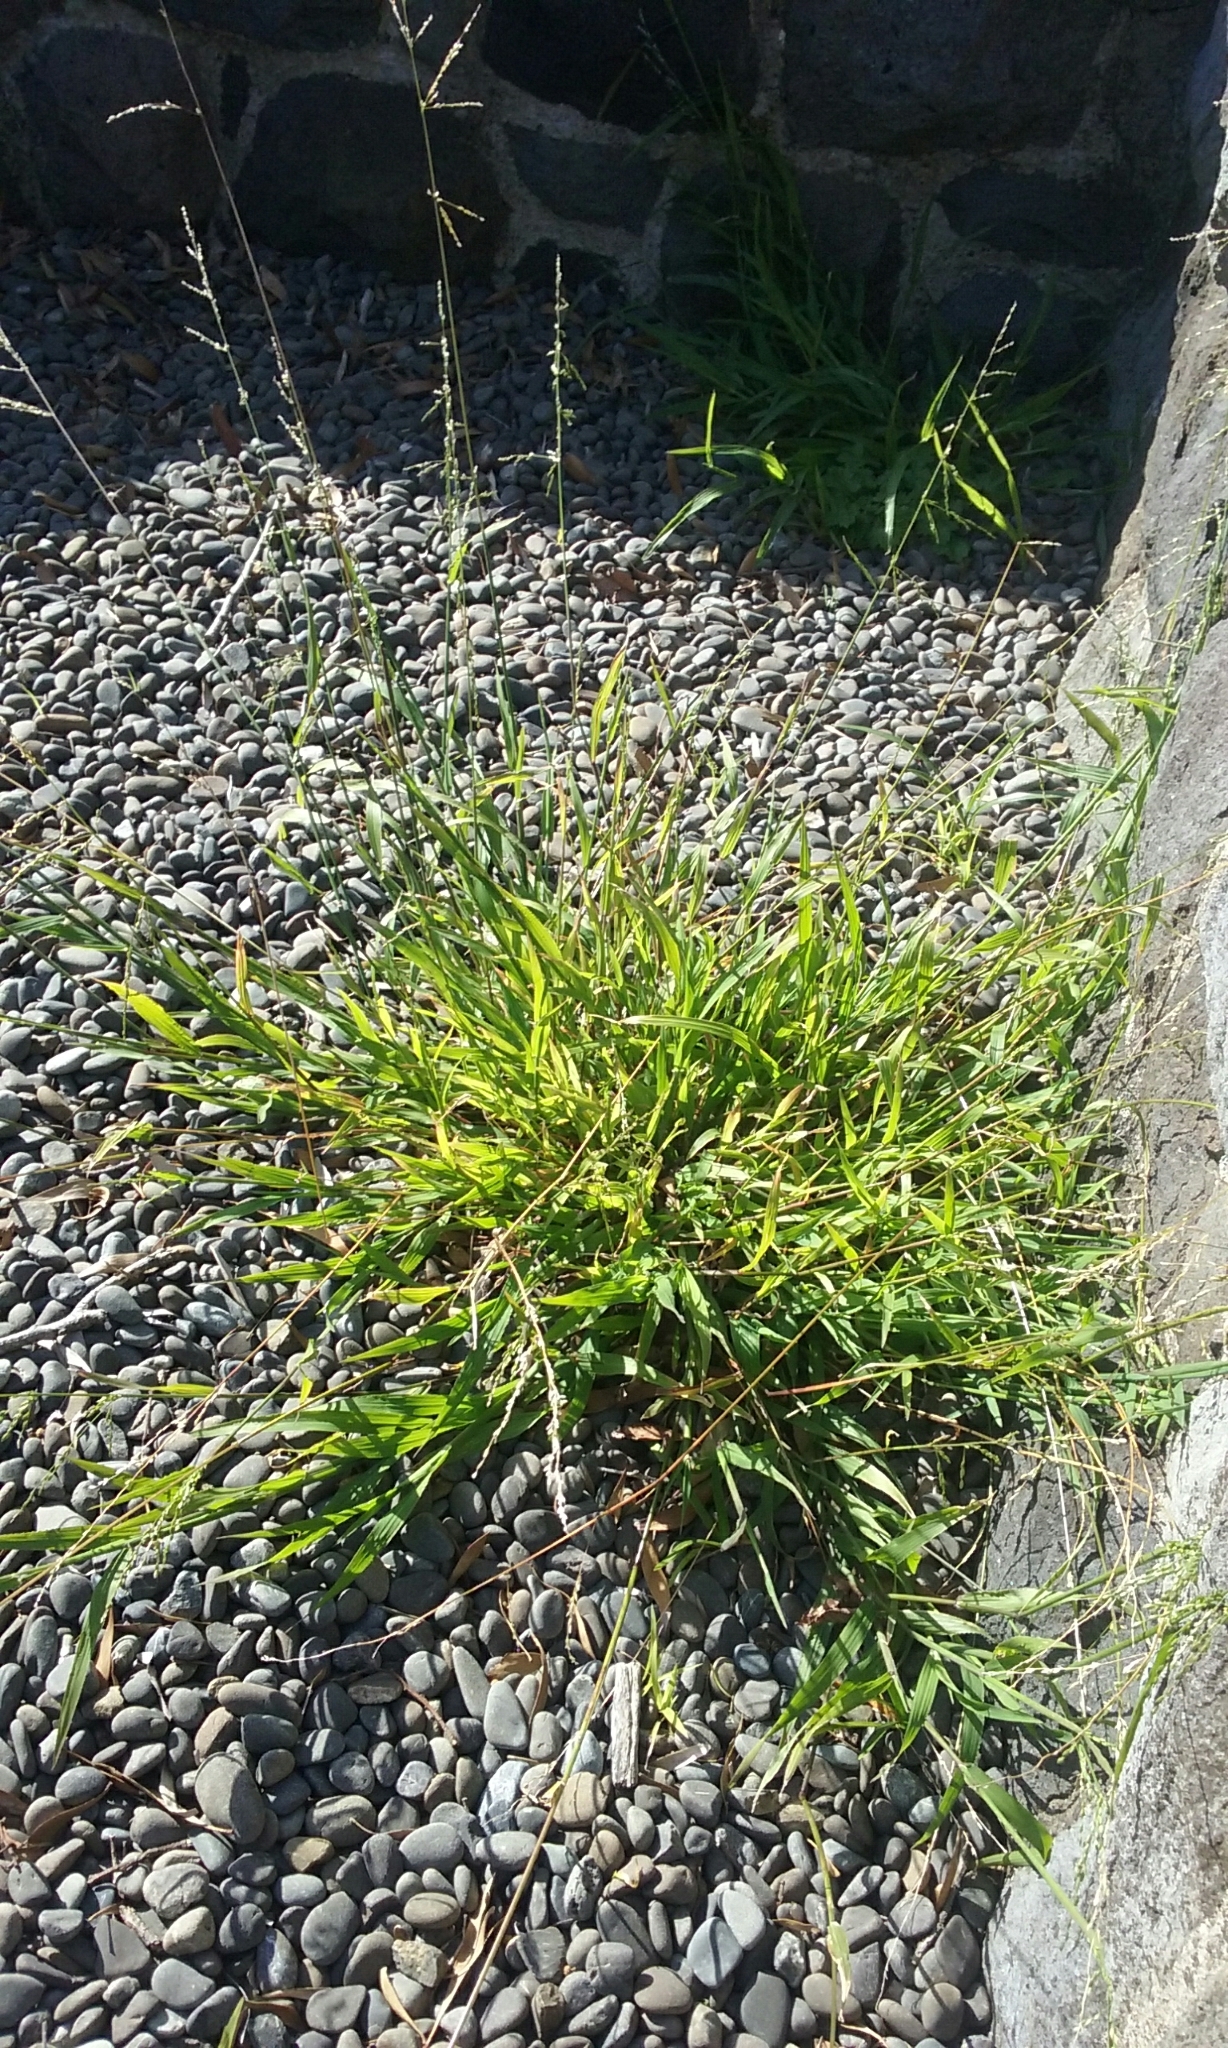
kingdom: Plantae
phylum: Tracheophyta
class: Liliopsida
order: Poales
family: Poaceae
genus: Ehrharta
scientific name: Ehrharta erecta
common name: Panic veldtgrass
